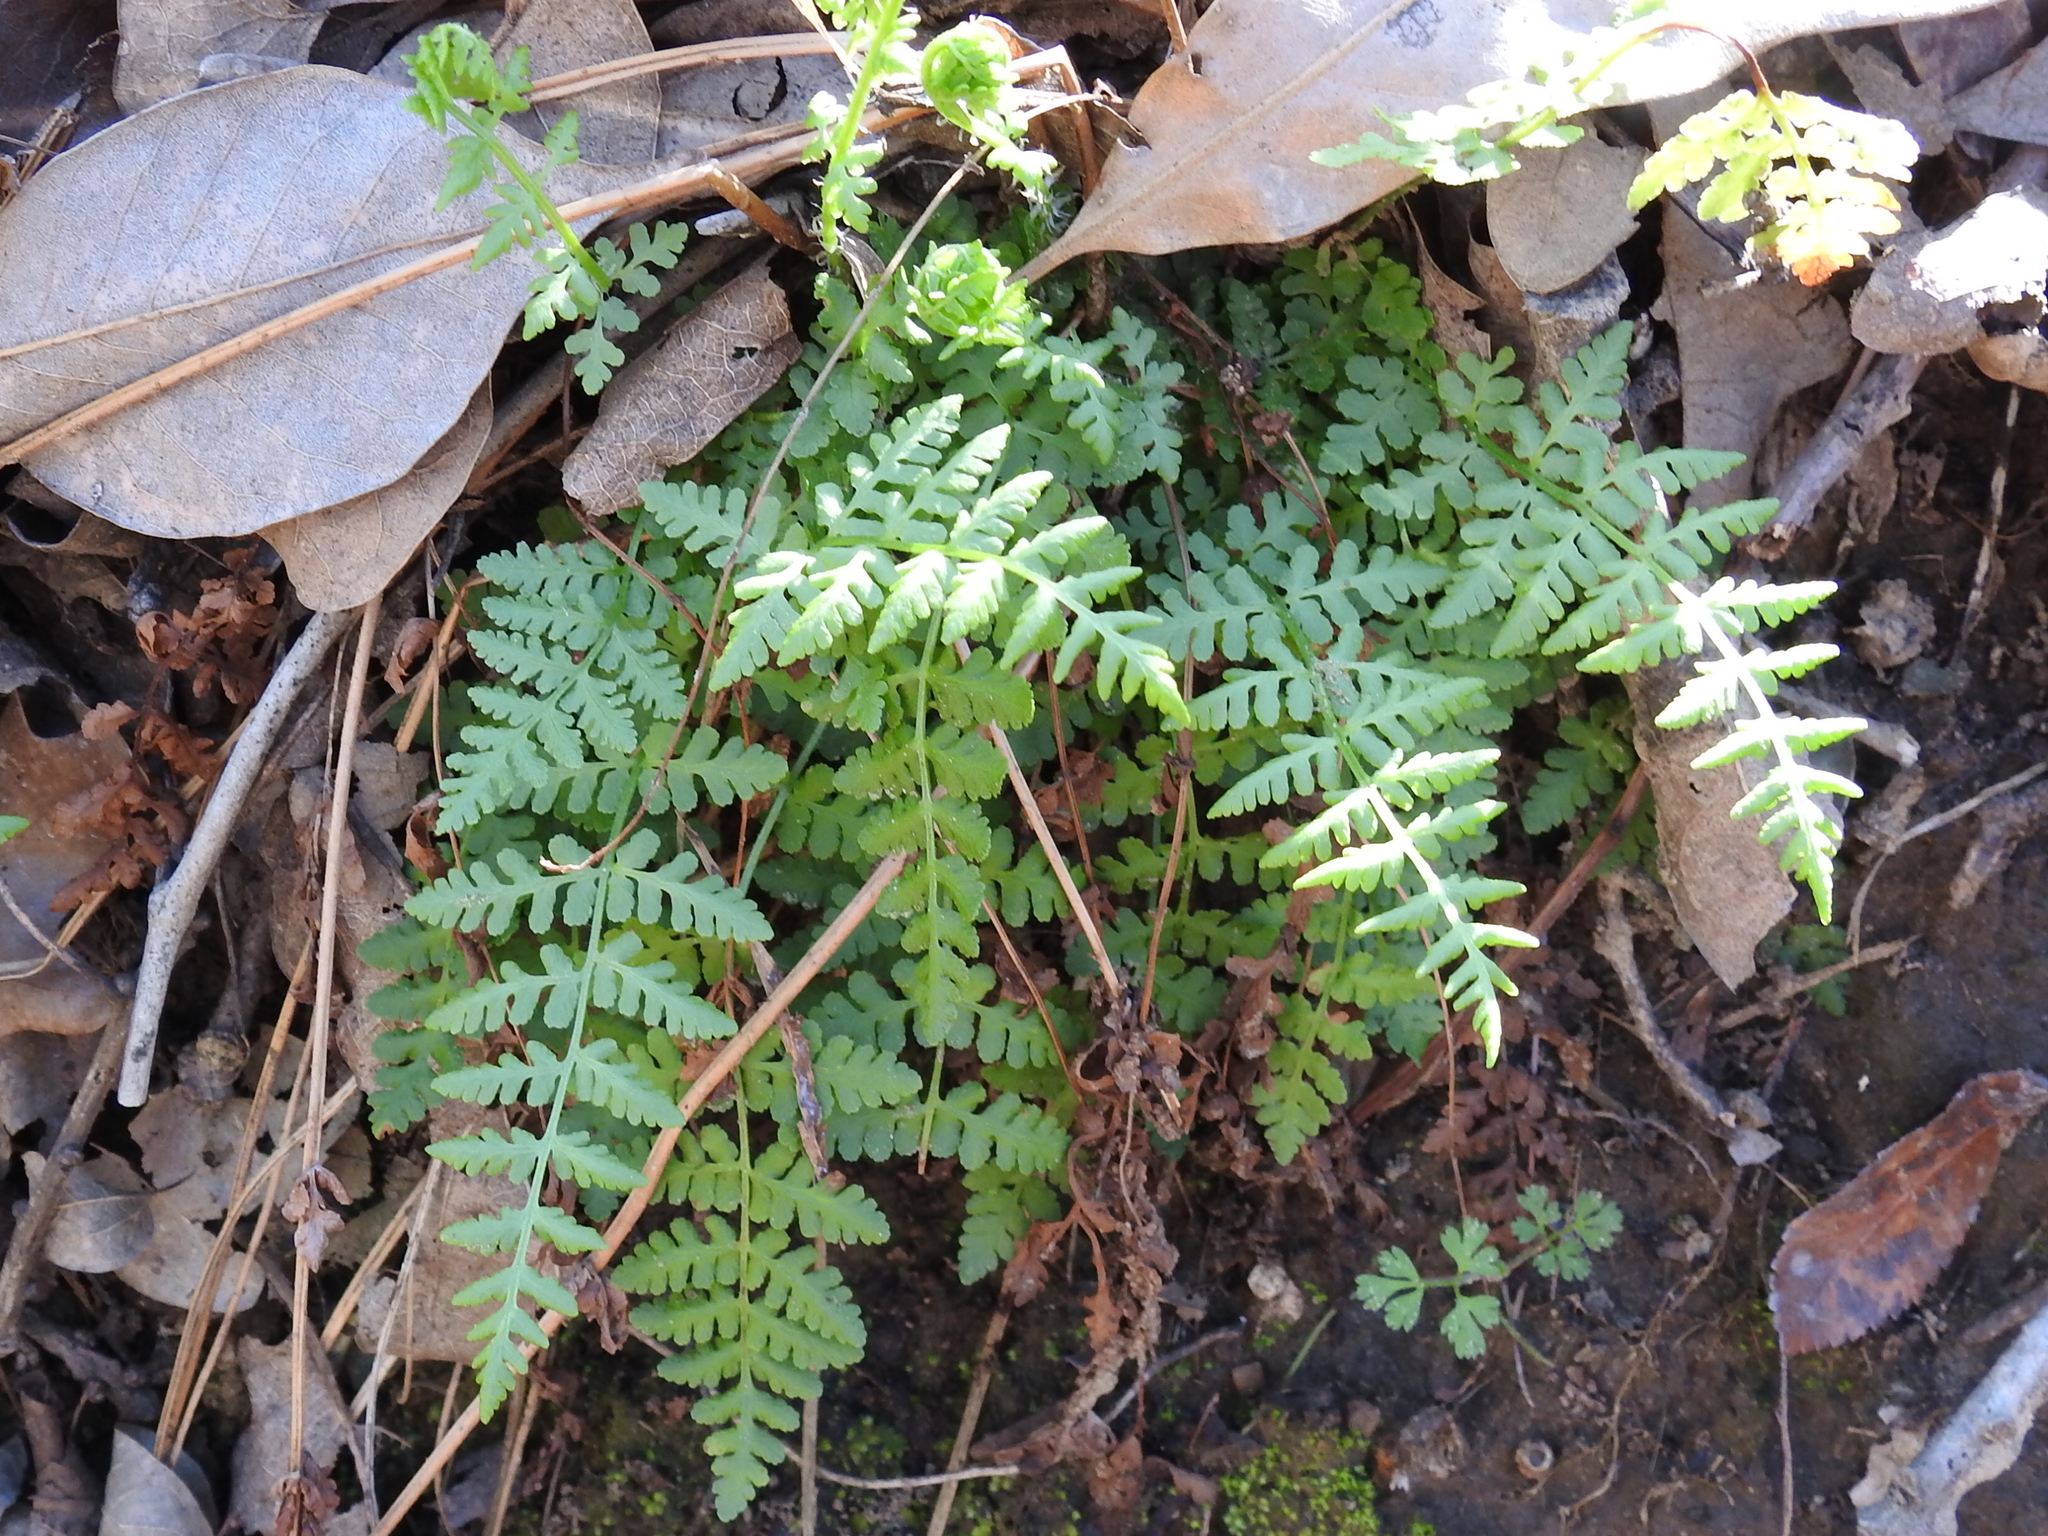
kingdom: Plantae
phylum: Tracheophyta
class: Polypodiopsida
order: Polypodiales
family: Woodsiaceae
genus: Physematium
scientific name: Physematium obtusum
